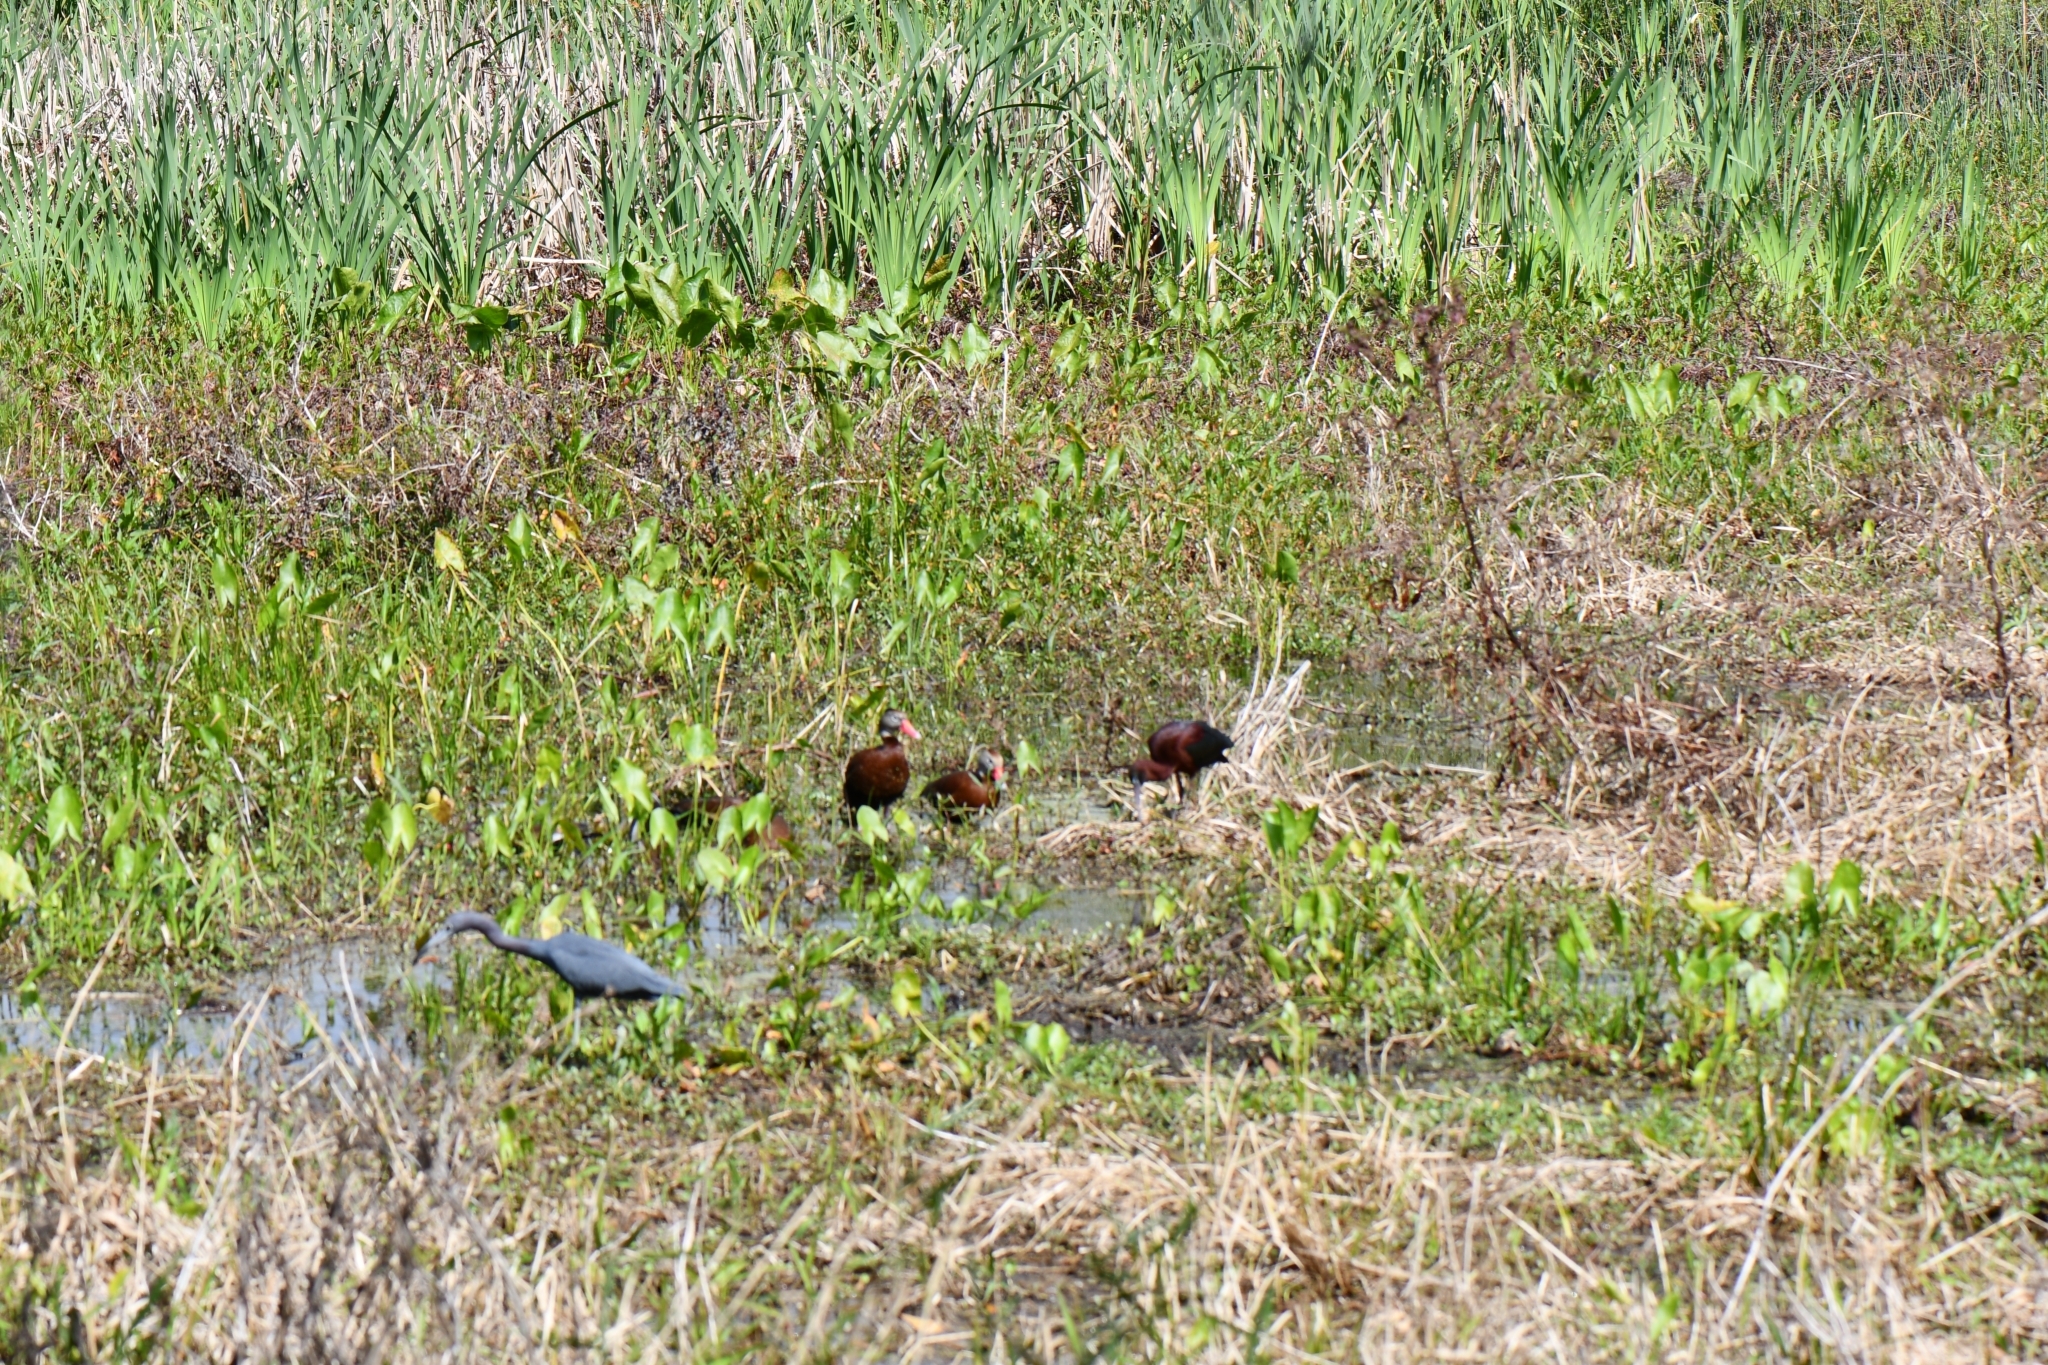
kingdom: Animalia
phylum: Chordata
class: Aves
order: Anseriformes
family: Anatidae
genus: Dendrocygna
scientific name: Dendrocygna autumnalis
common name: Black-bellied whistling duck
